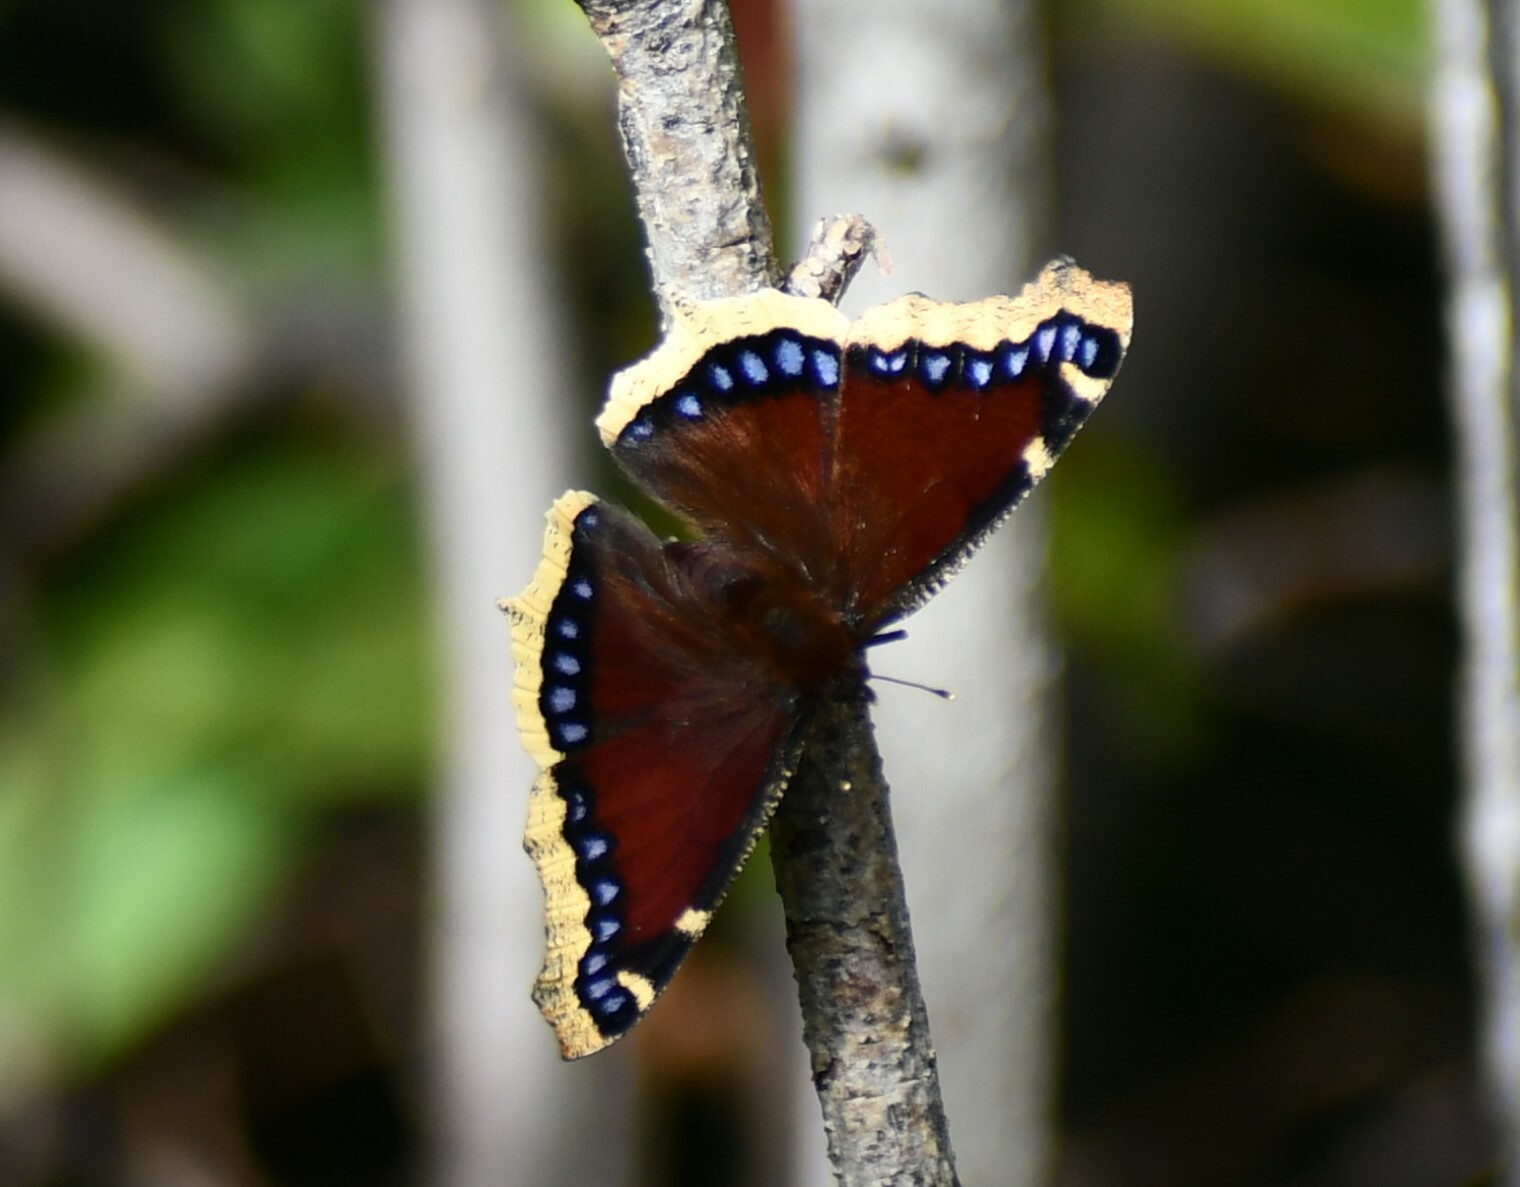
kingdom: Animalia
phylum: Arthropoda
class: Insecta
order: Lepidoptera
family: Nymphalidae
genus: Nymphalis
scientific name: Nymphalis antiopa
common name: Camberwell beauty
